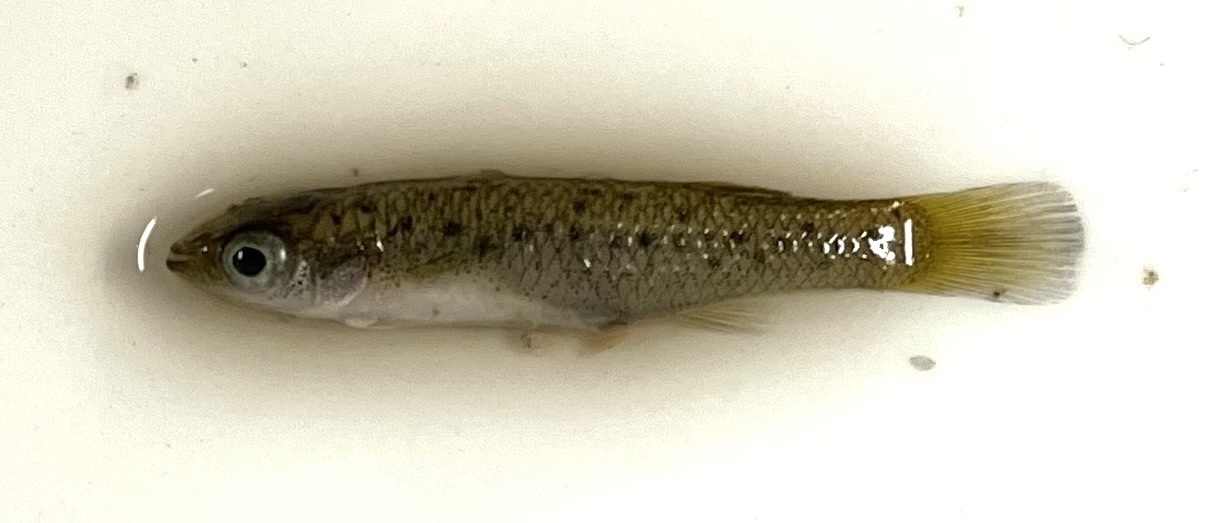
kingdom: Animalia
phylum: Chordata
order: Cyprinodontiformes
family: Fundulidae
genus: Fundulus
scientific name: Fundulus pulvereus
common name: Bayou killifish
